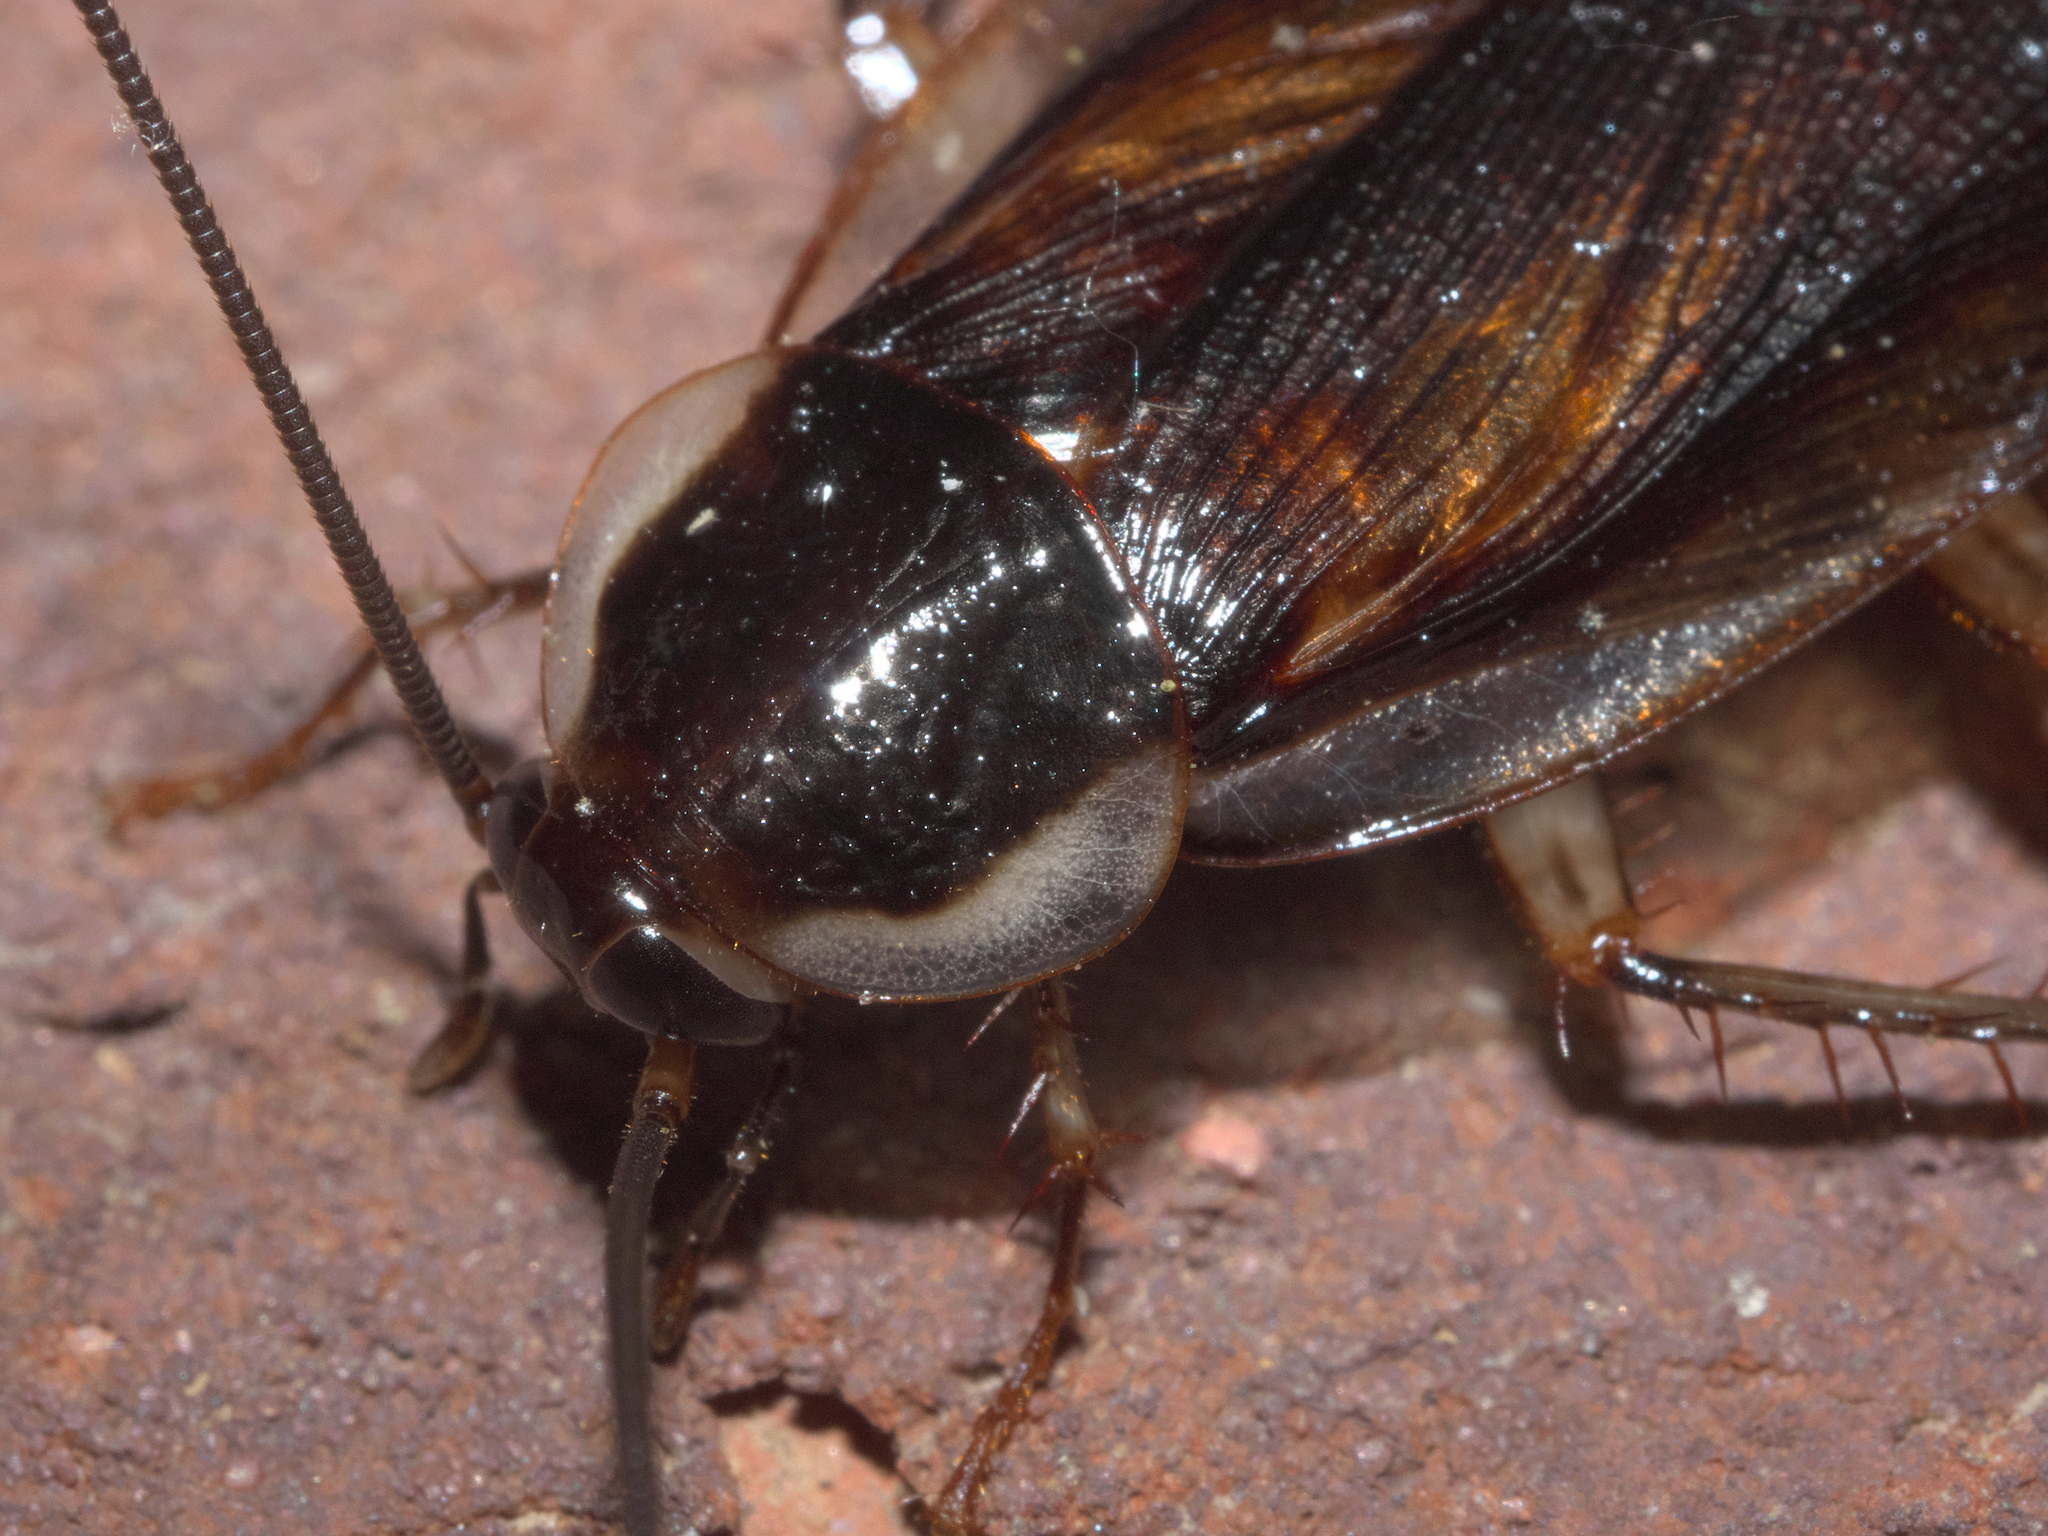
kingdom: Animalia
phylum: Arthropoda
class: Insecta
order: Blattodea
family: Ectobiidae
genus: Parcoblatta
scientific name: Parcoblatta pennsylvanica
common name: Pennsylvanian wood cockroach
